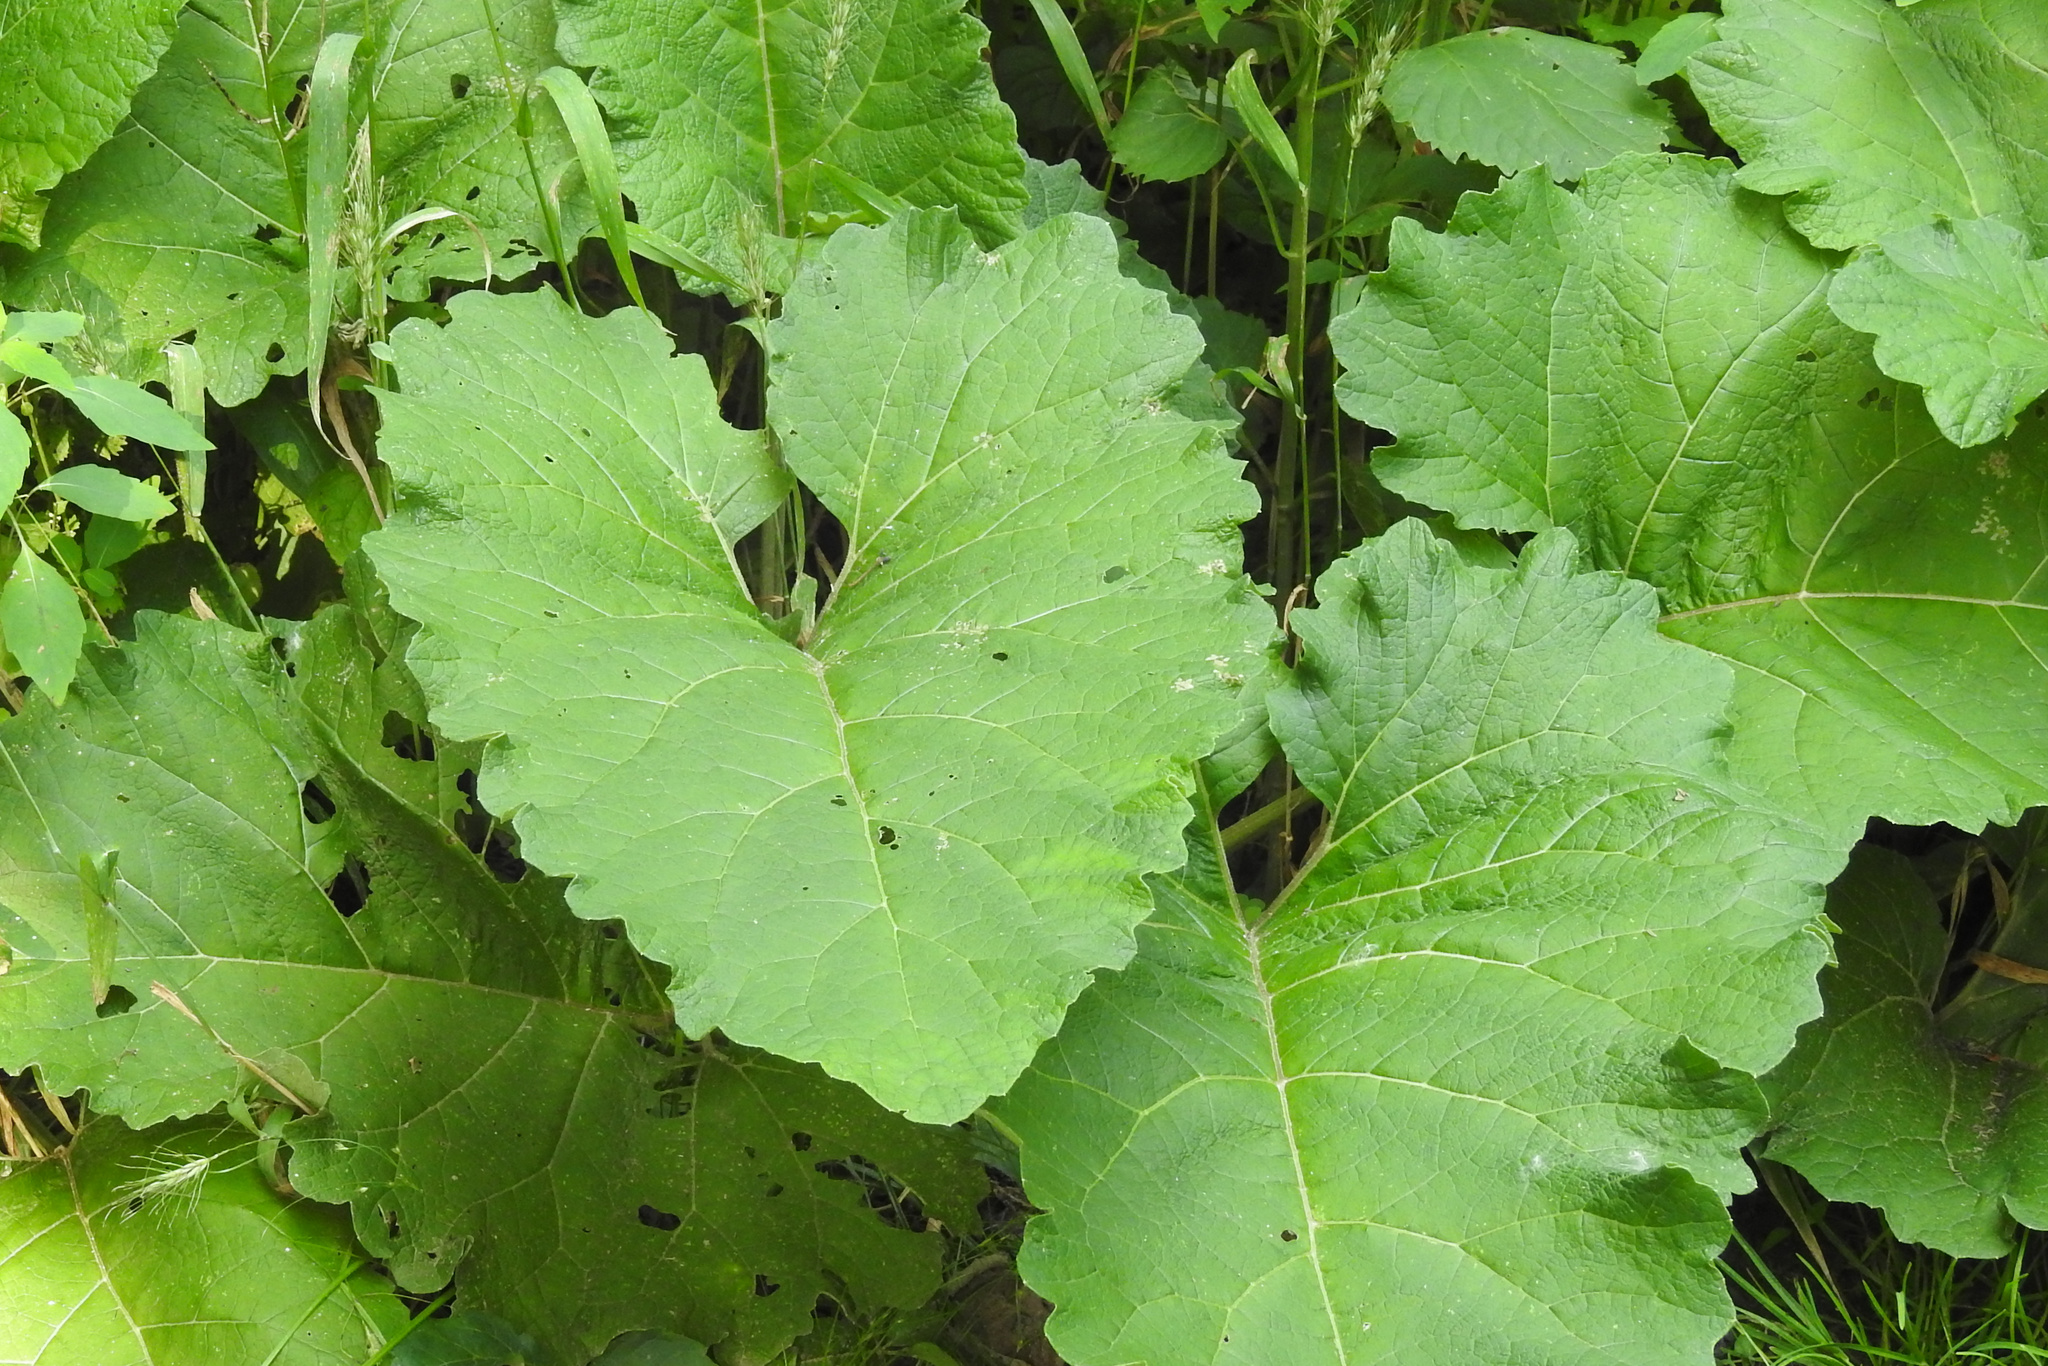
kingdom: Plantae
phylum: Tracheophyta
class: Magnoliopsida
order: Asterales
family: Asteraceae
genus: Arctium
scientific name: Arctium
